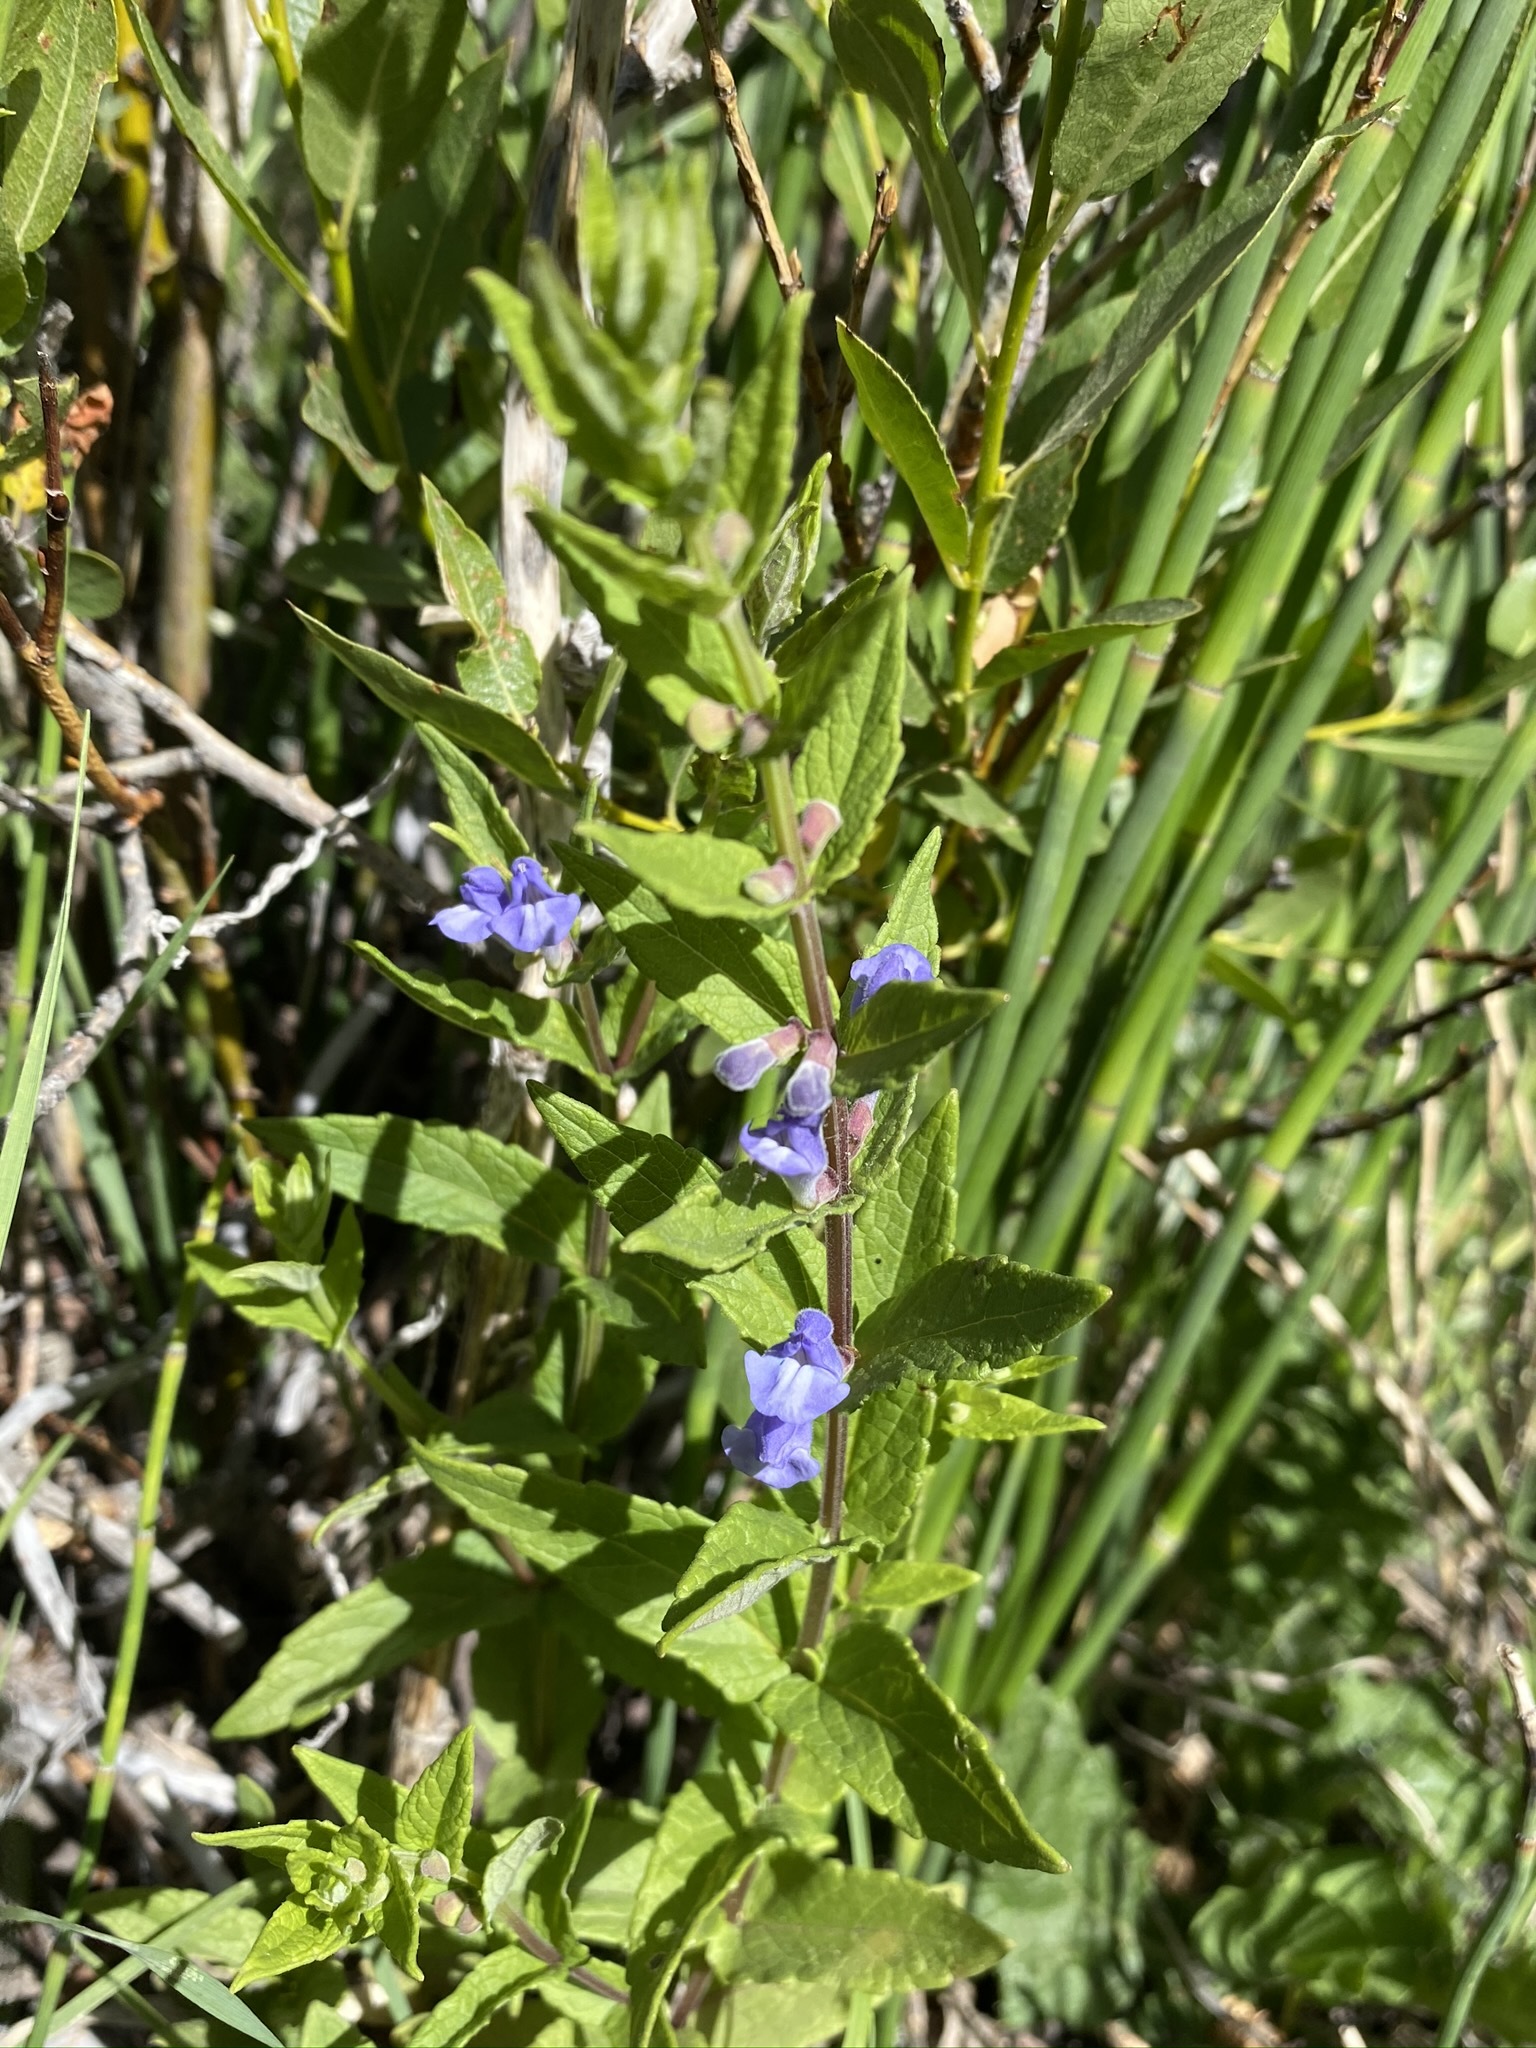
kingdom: Plantae
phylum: Tracheophyta
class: Magnoliopsida
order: Lamiales
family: Lamiaceae
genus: Scutellaria
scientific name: Scutellaria galericulata
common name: Skullcap
